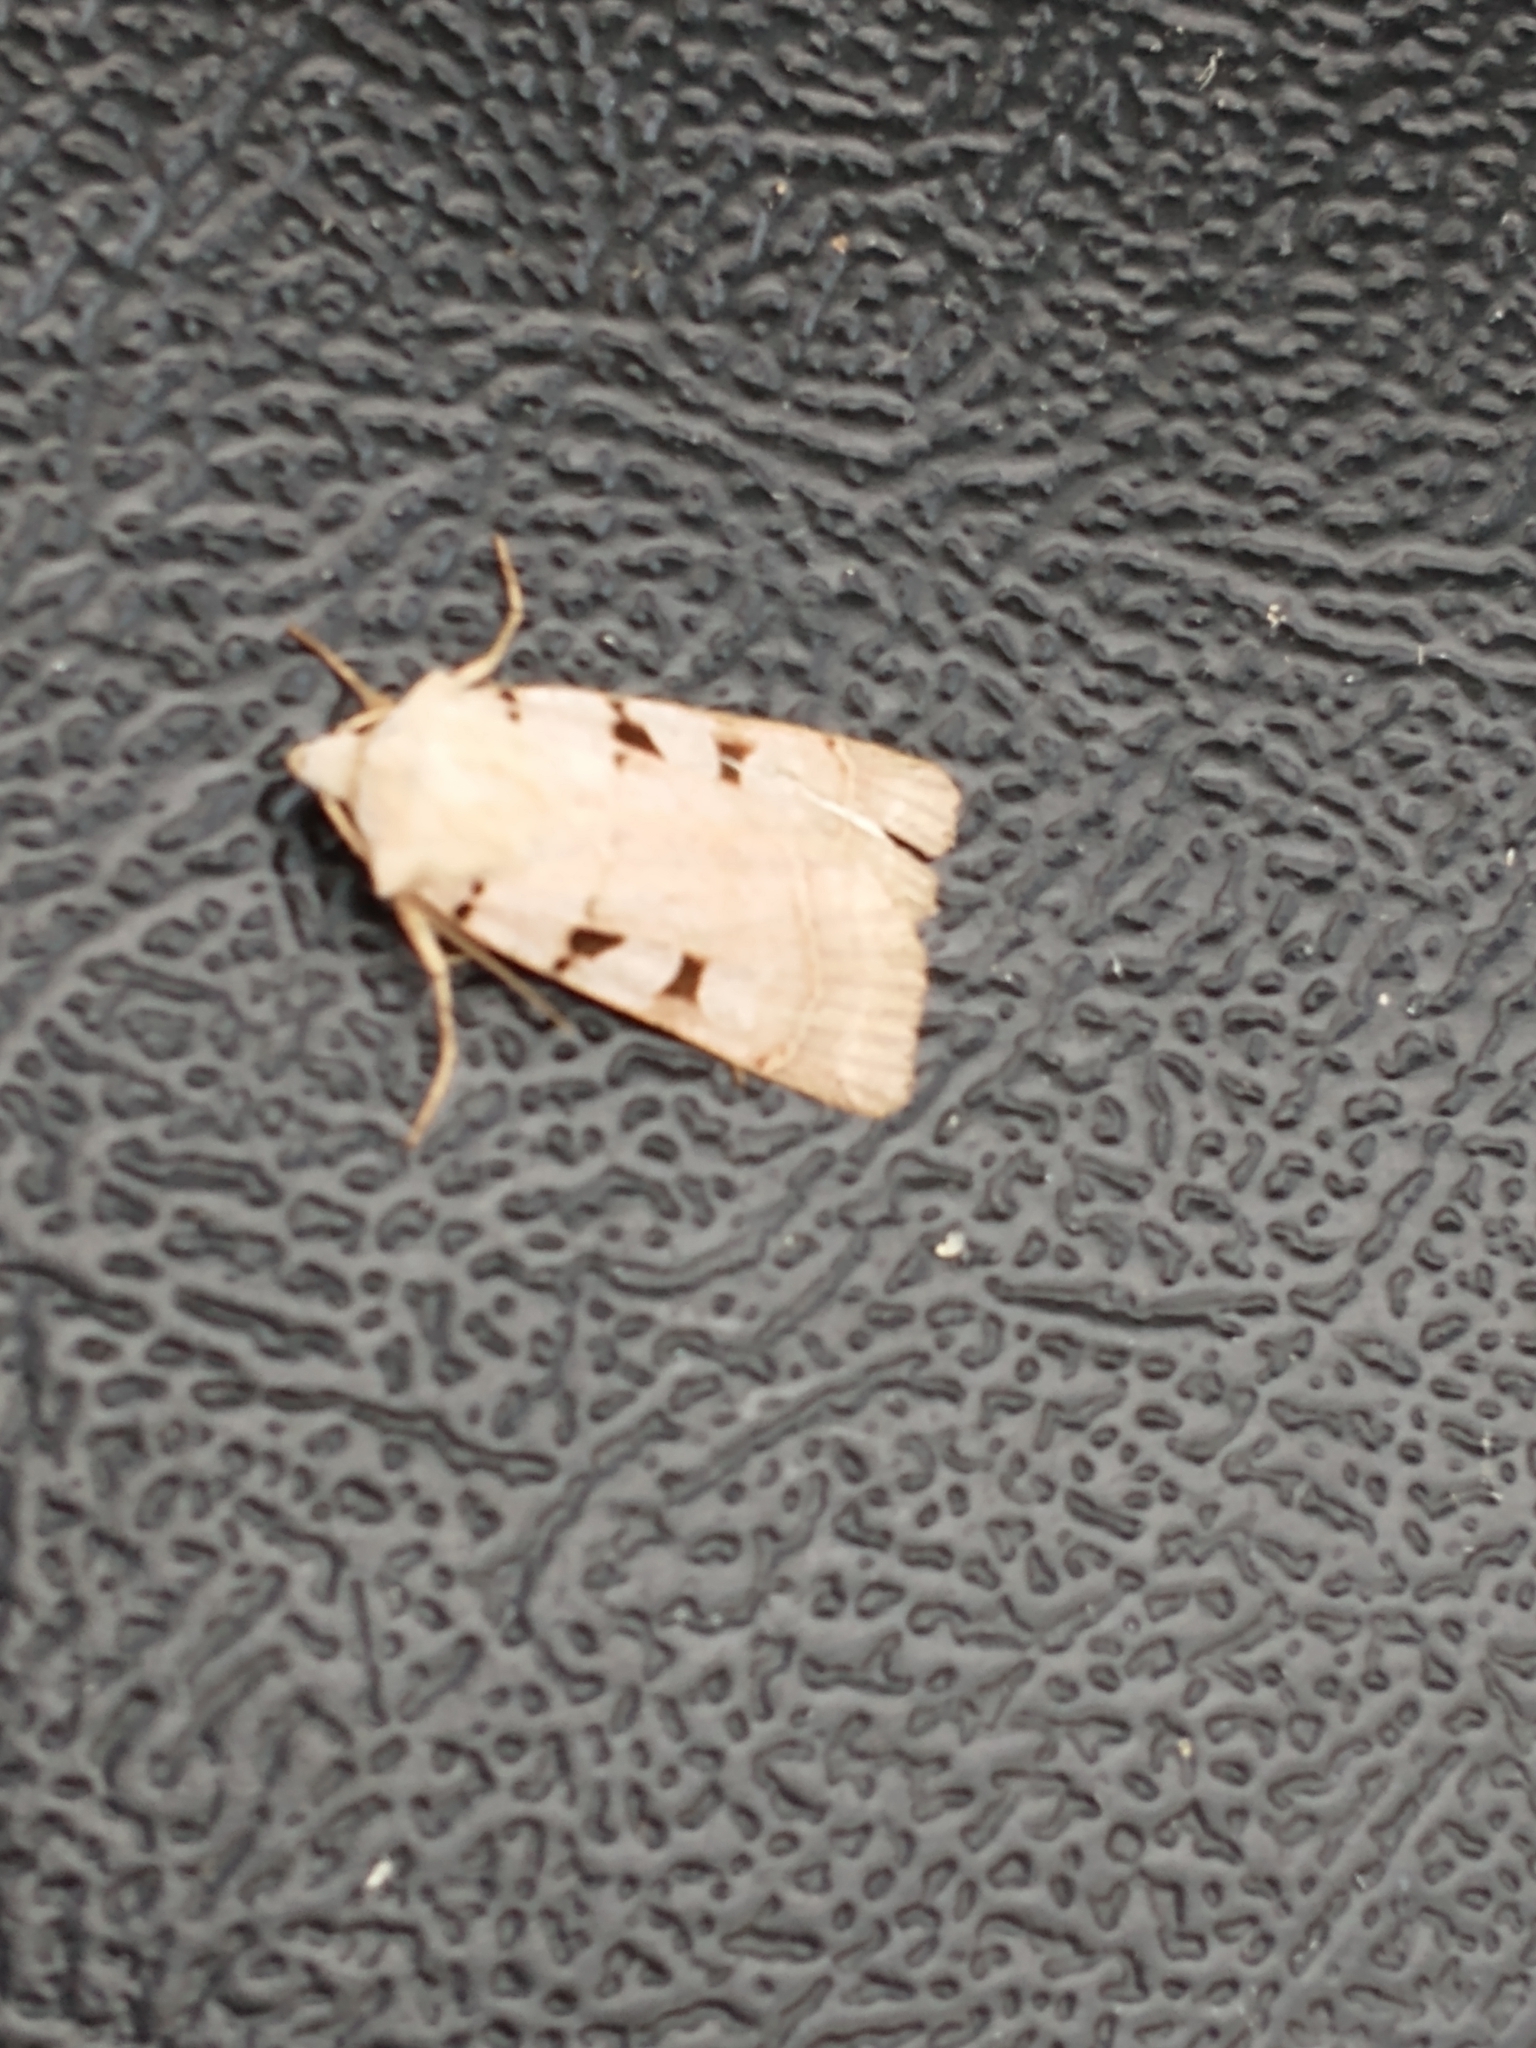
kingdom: Animalia
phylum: Arthropoda
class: Insecta
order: Lepidoptera
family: Noctuidae
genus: Eugnorisma
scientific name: Eugnorisma glareosa
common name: Autumnal rustic
